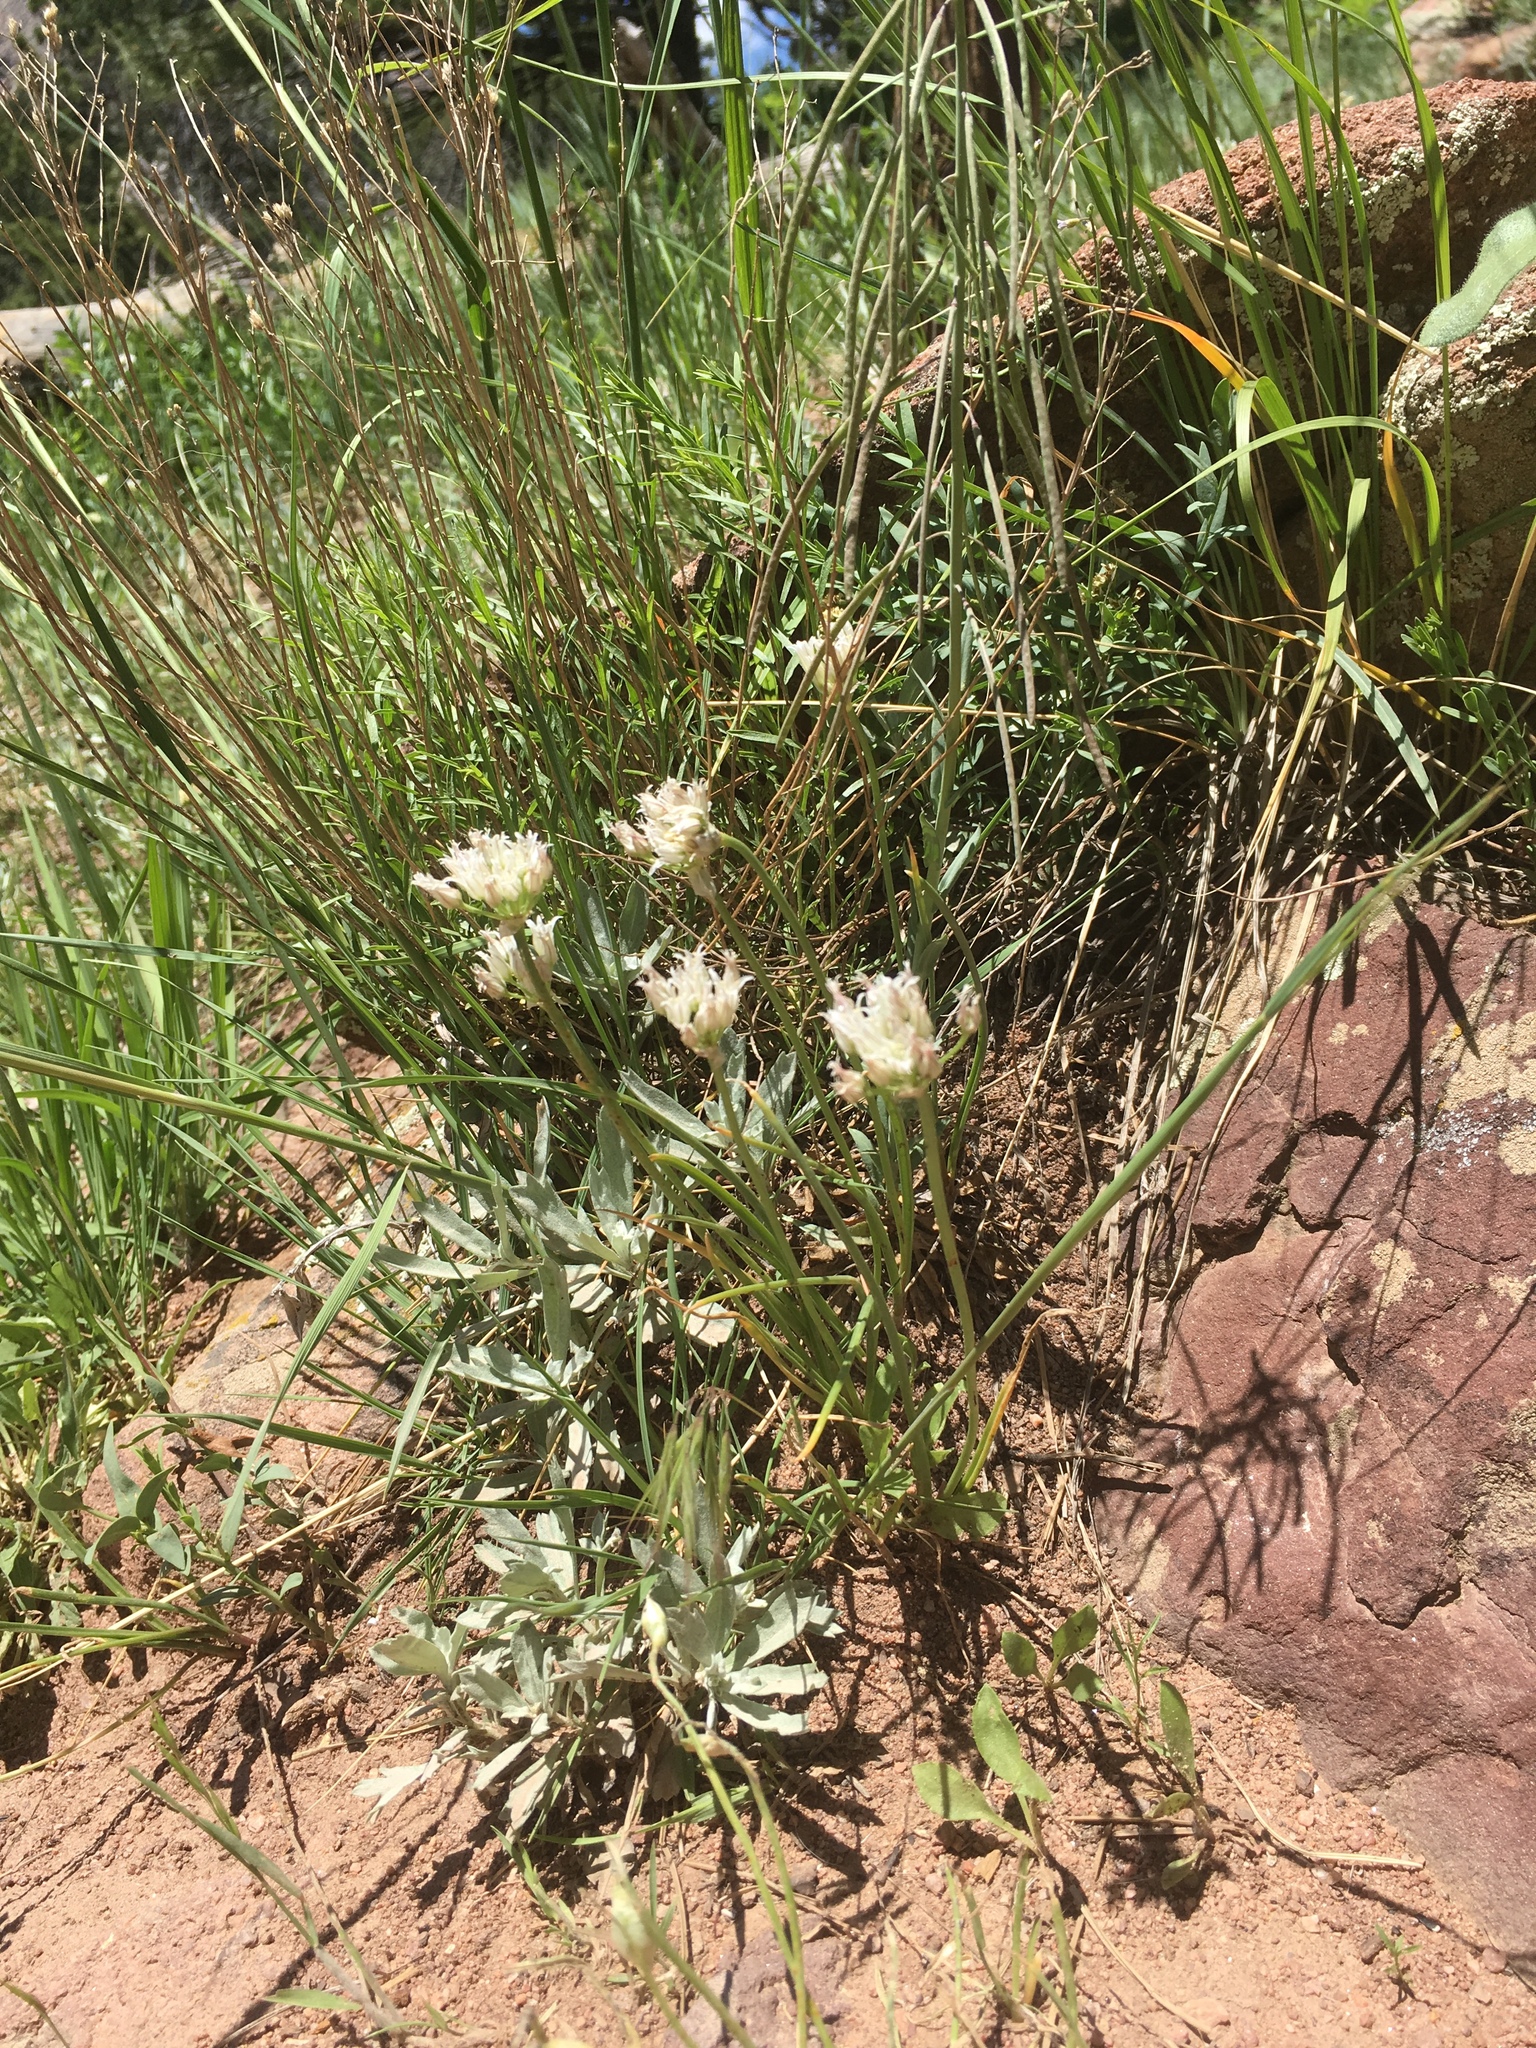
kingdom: Plantae
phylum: Tracheophyta
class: Liliopsida
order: Asparagales
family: Amaryllidaceae
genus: Allium
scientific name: Allium textile
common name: Prairie onion
